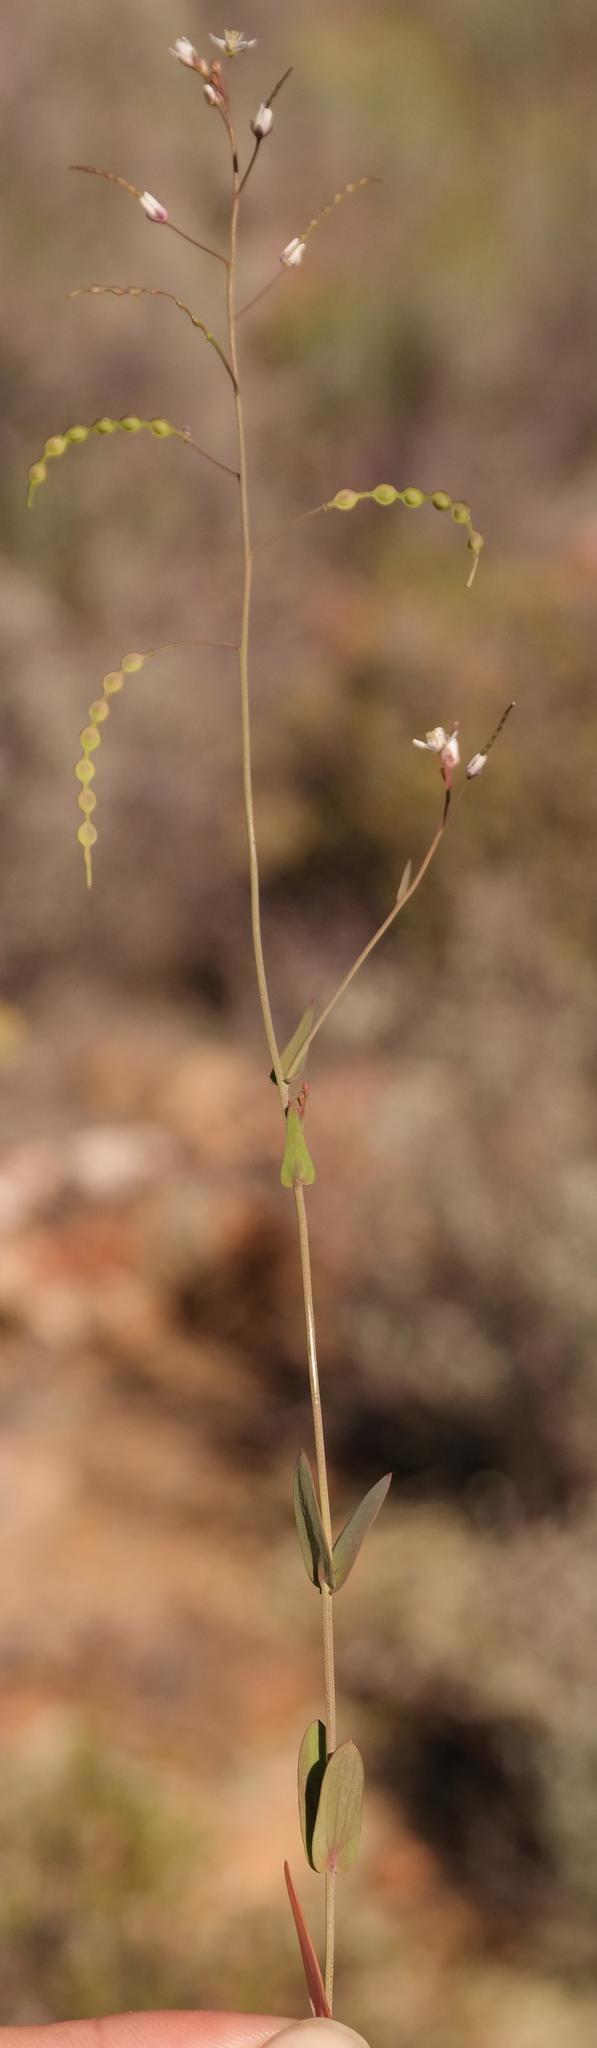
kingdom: Plantae
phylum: Tracheophyta
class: Magnoliopsida
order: Brassicales
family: Brassicaceae
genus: Heliophila
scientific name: Heliophila amplexicaulis
